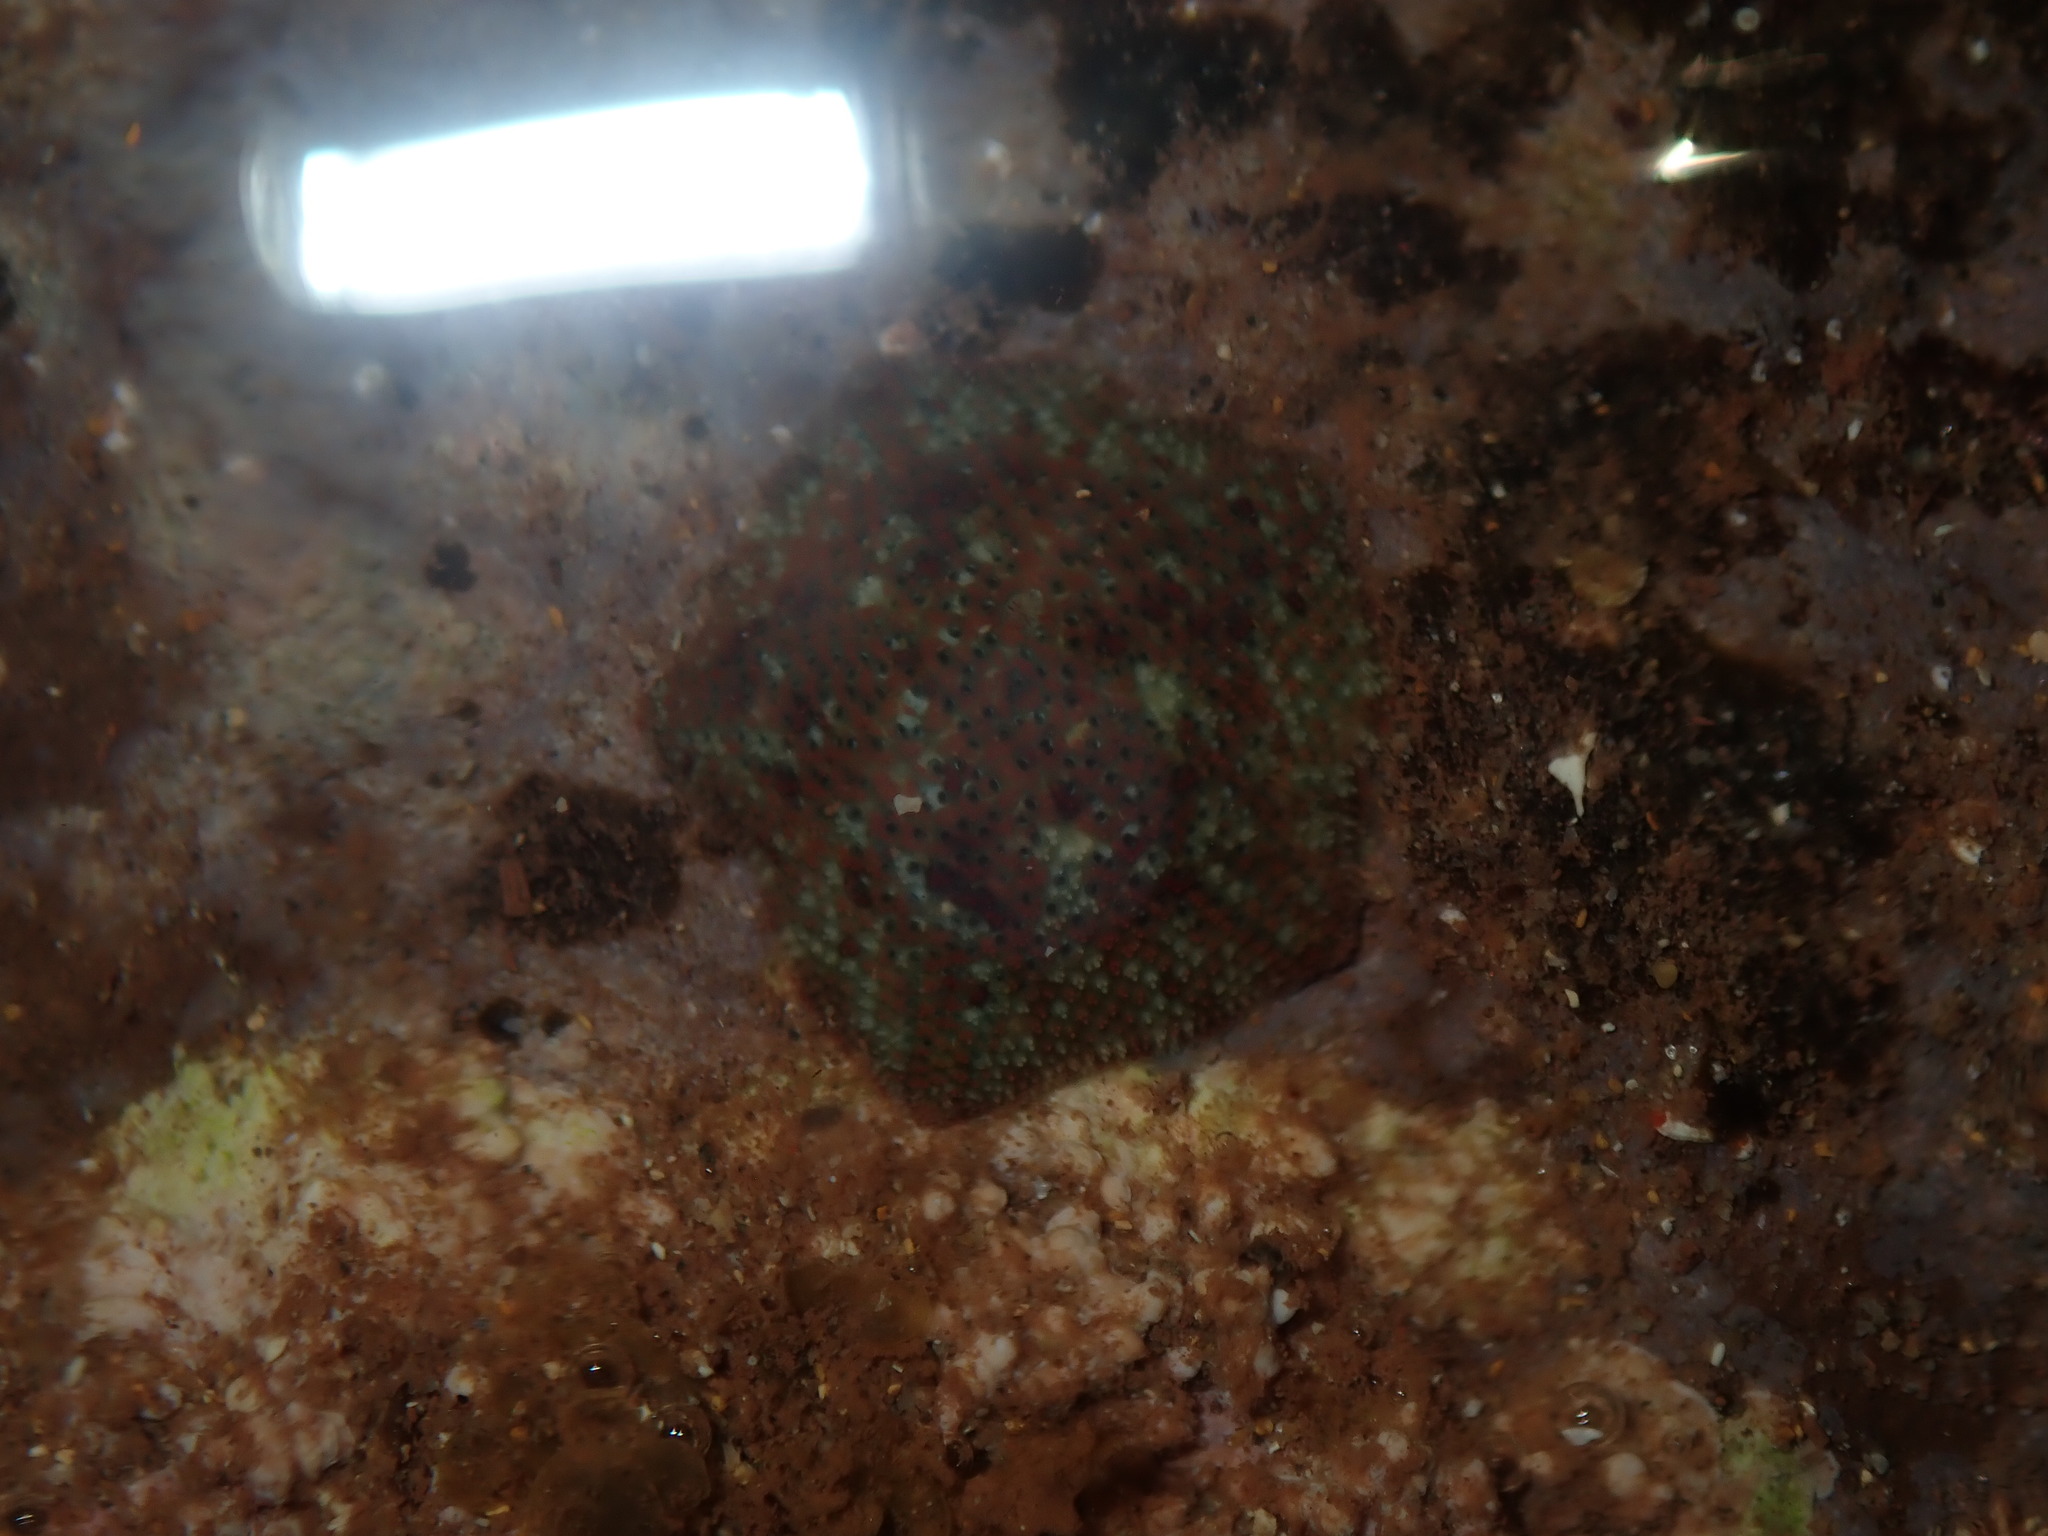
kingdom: Animalia
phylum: Echinodermata
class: Asteroidea
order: Valvatida
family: Asterinidae
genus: Parvulastra
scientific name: Parvulastra exigua
